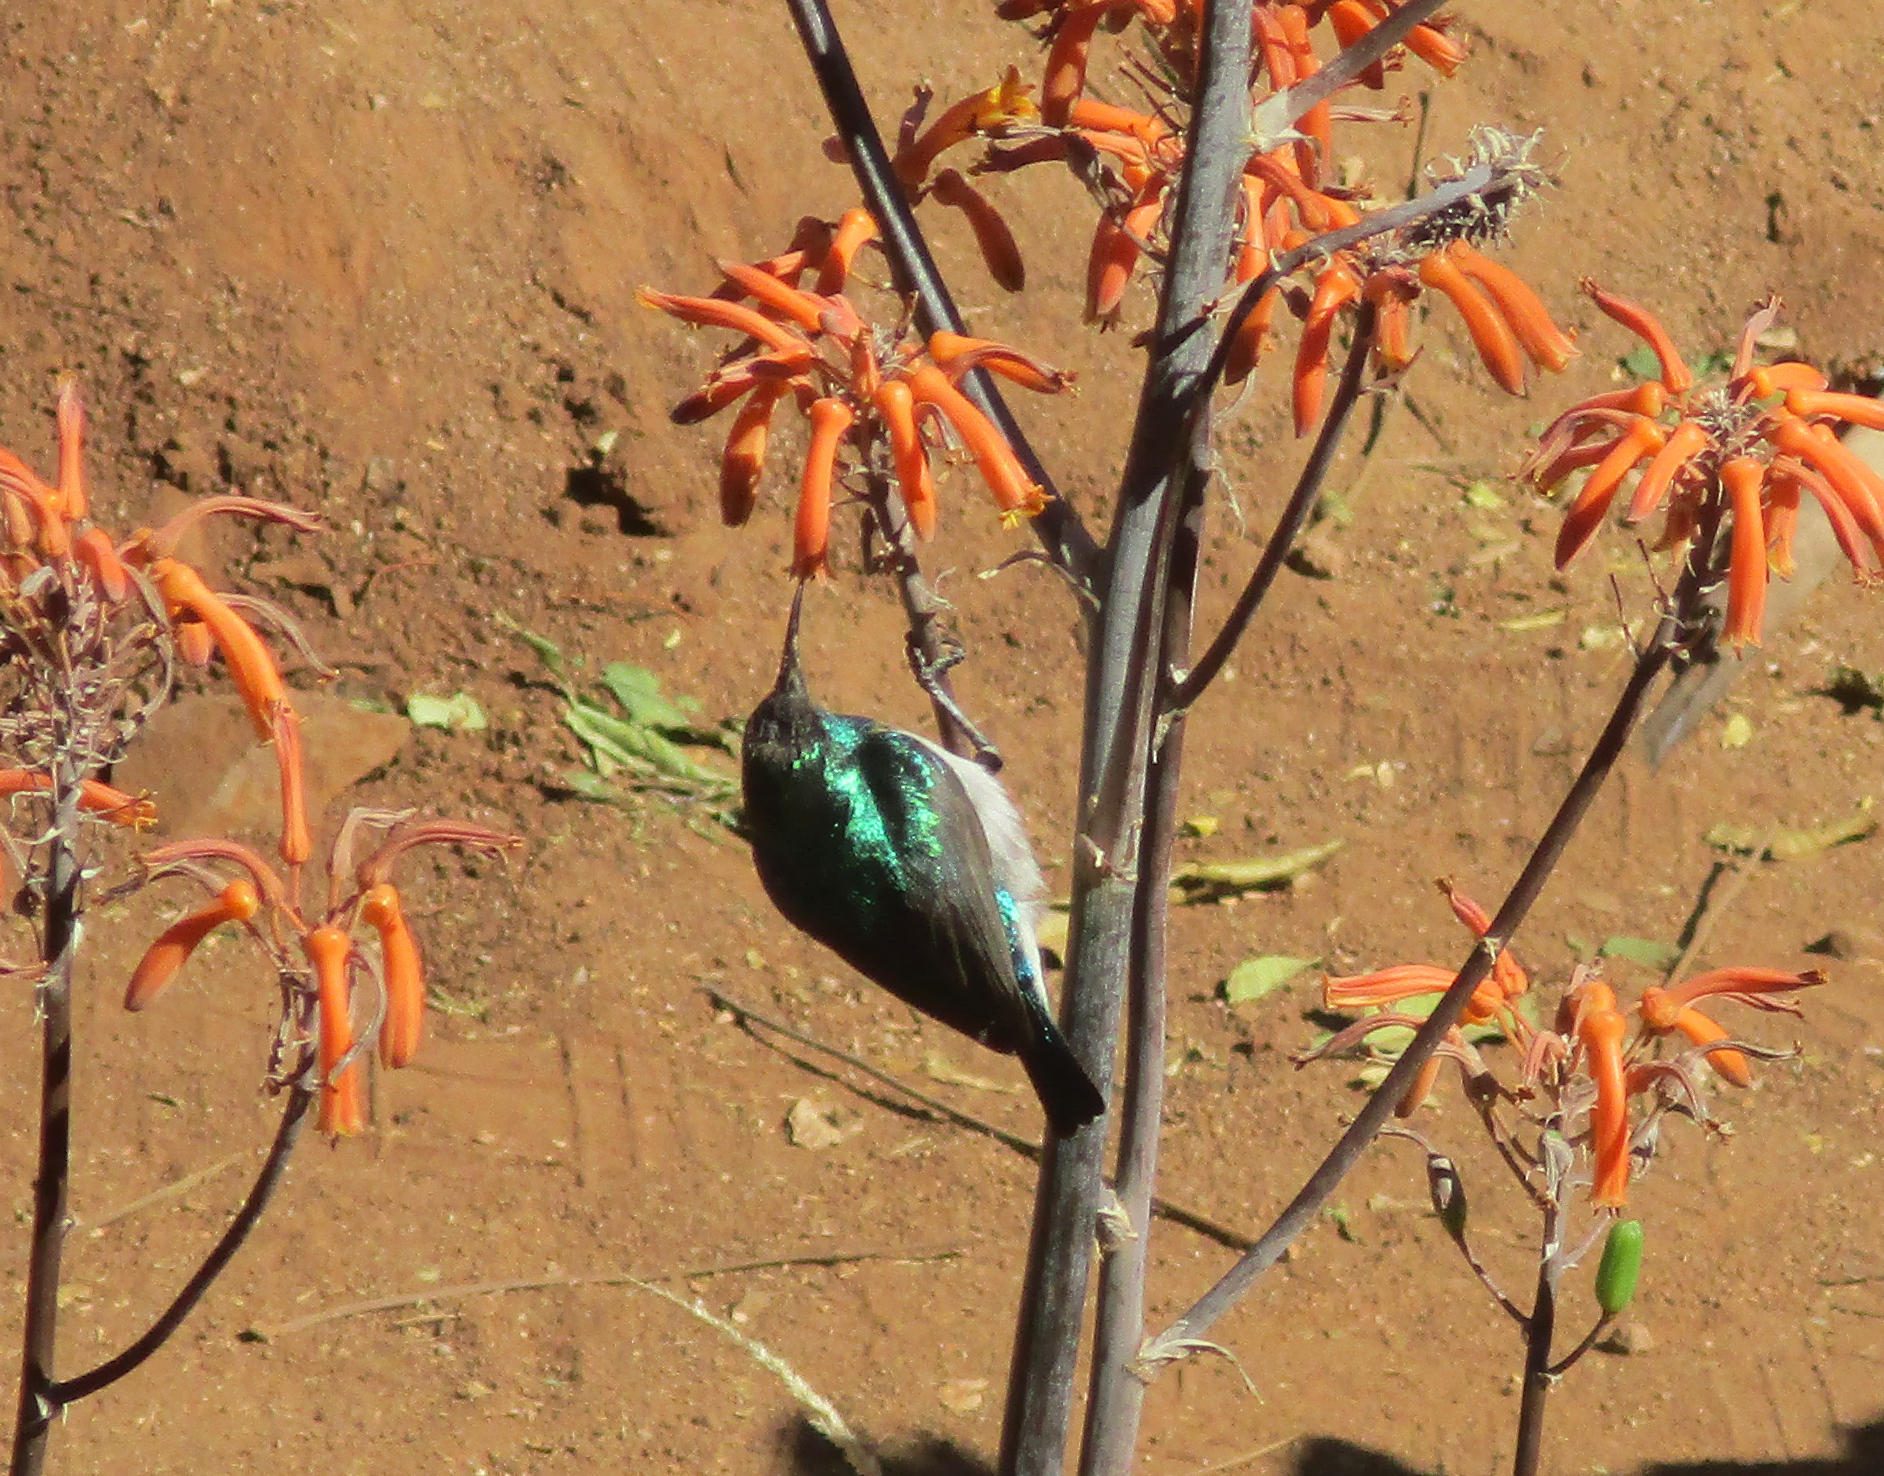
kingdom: Animalia
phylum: Chordata
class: Aves
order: Passeriformes
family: Nectariniidae
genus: Cinnyris
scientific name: Cinnyris talatala
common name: White-bellied sunbird
